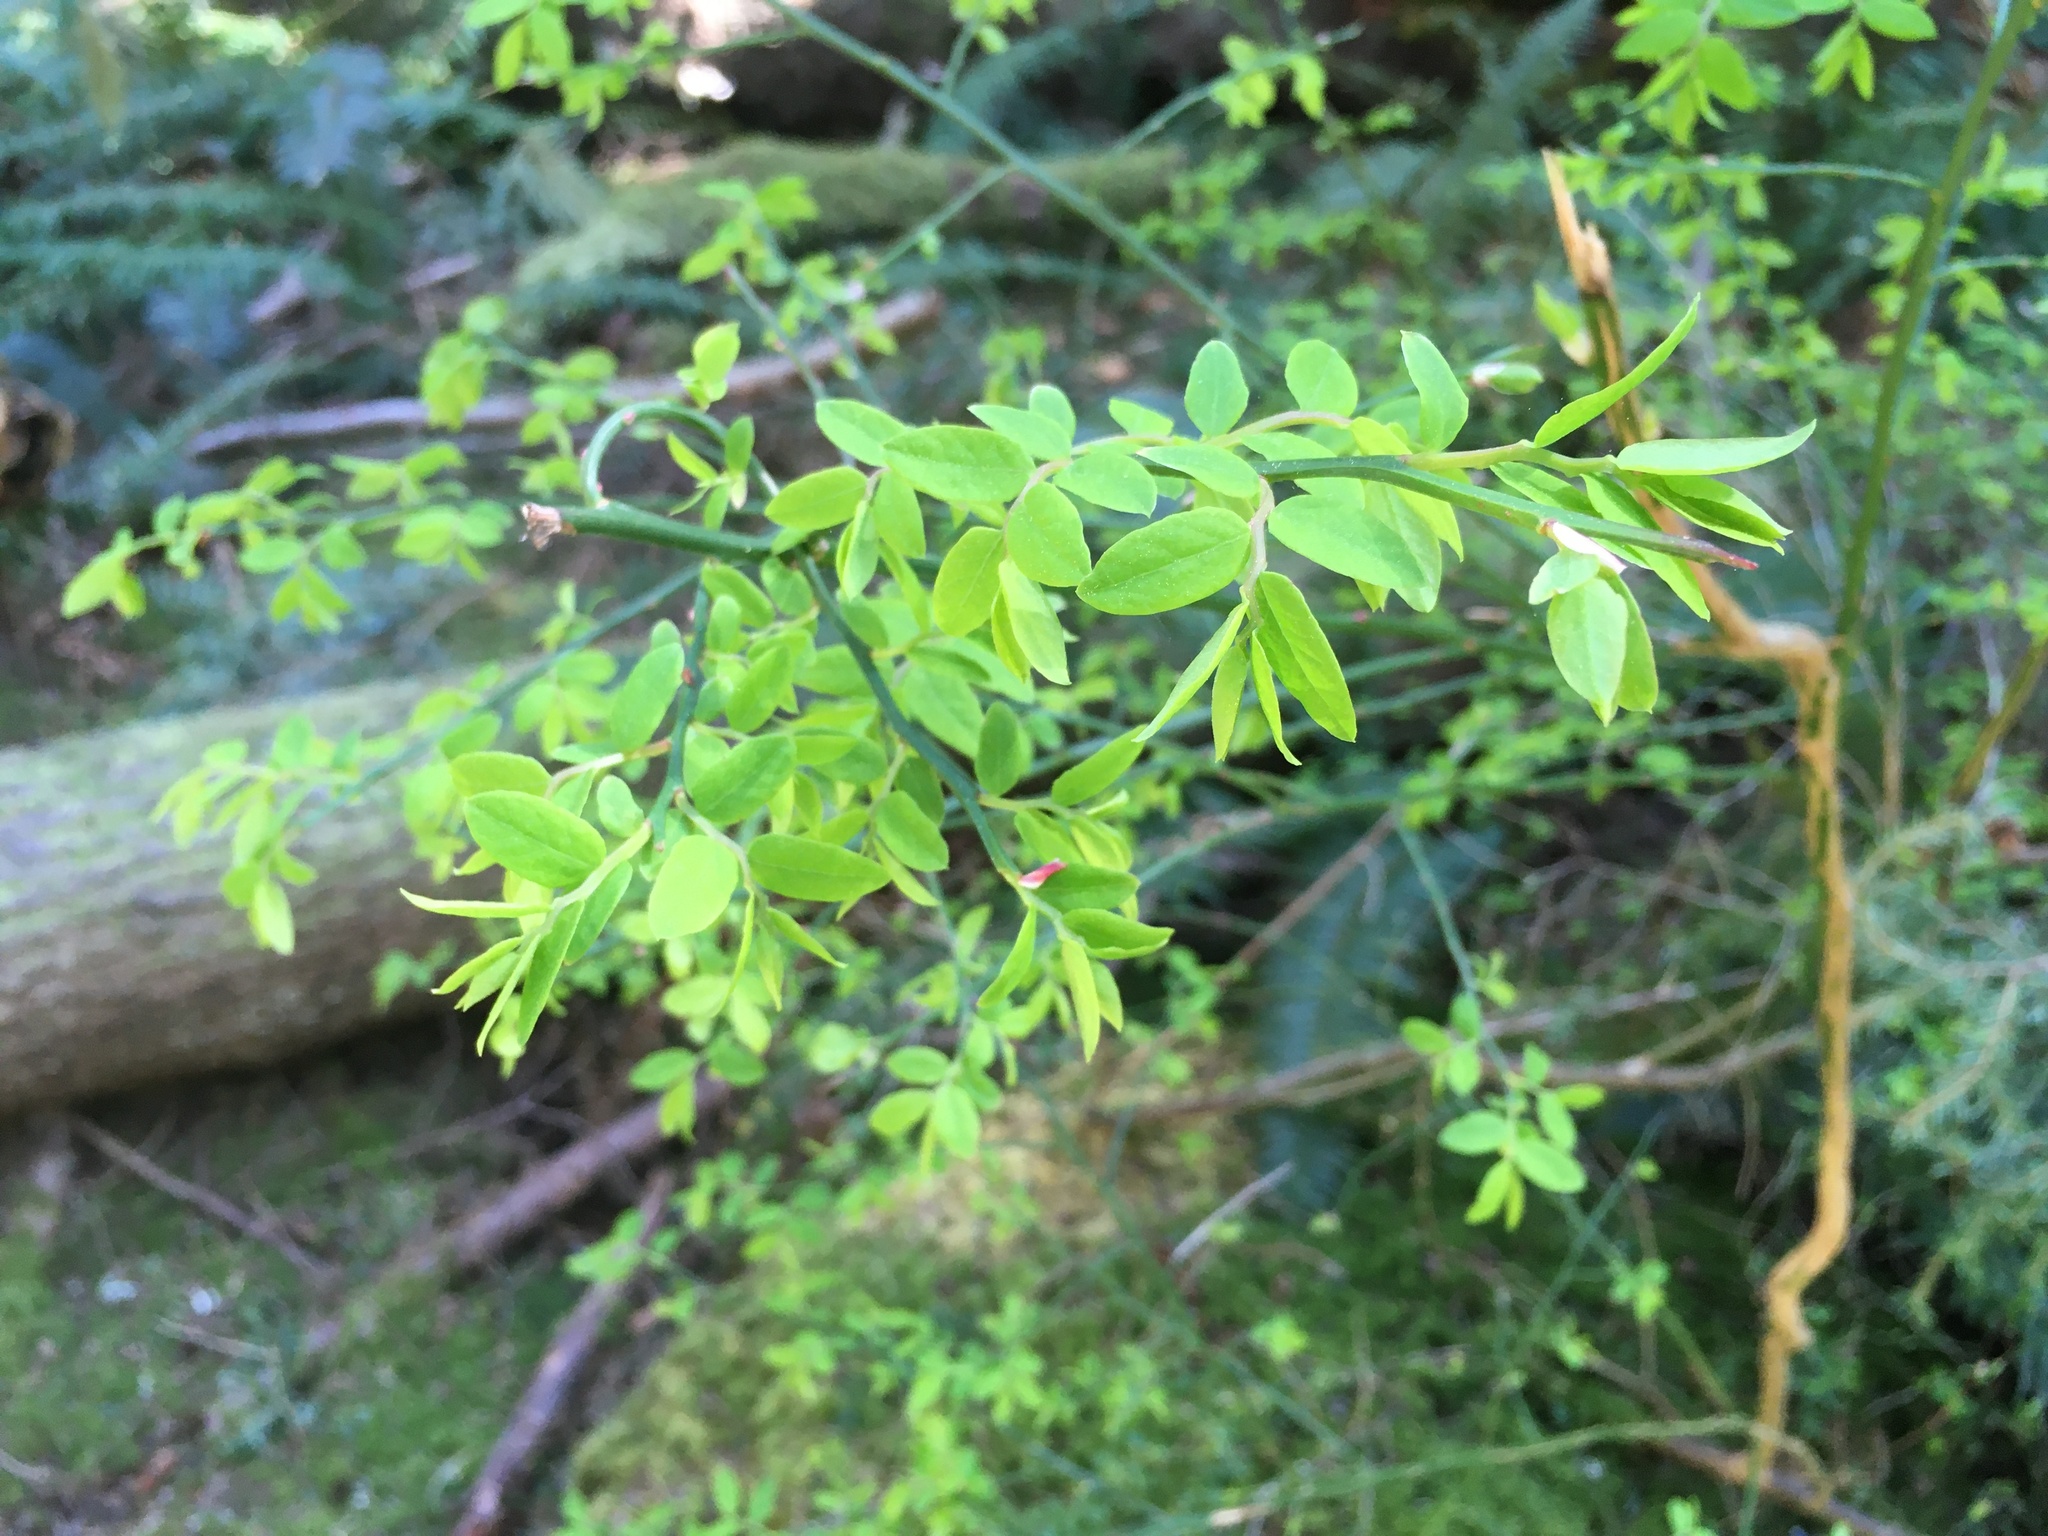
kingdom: Plantae
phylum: Tracheophyta
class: Magnoliopsida
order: Ericales
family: Ericaceae
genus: Vaccinium
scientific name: Vaccinium parvifolium
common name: Red-huckleberry
